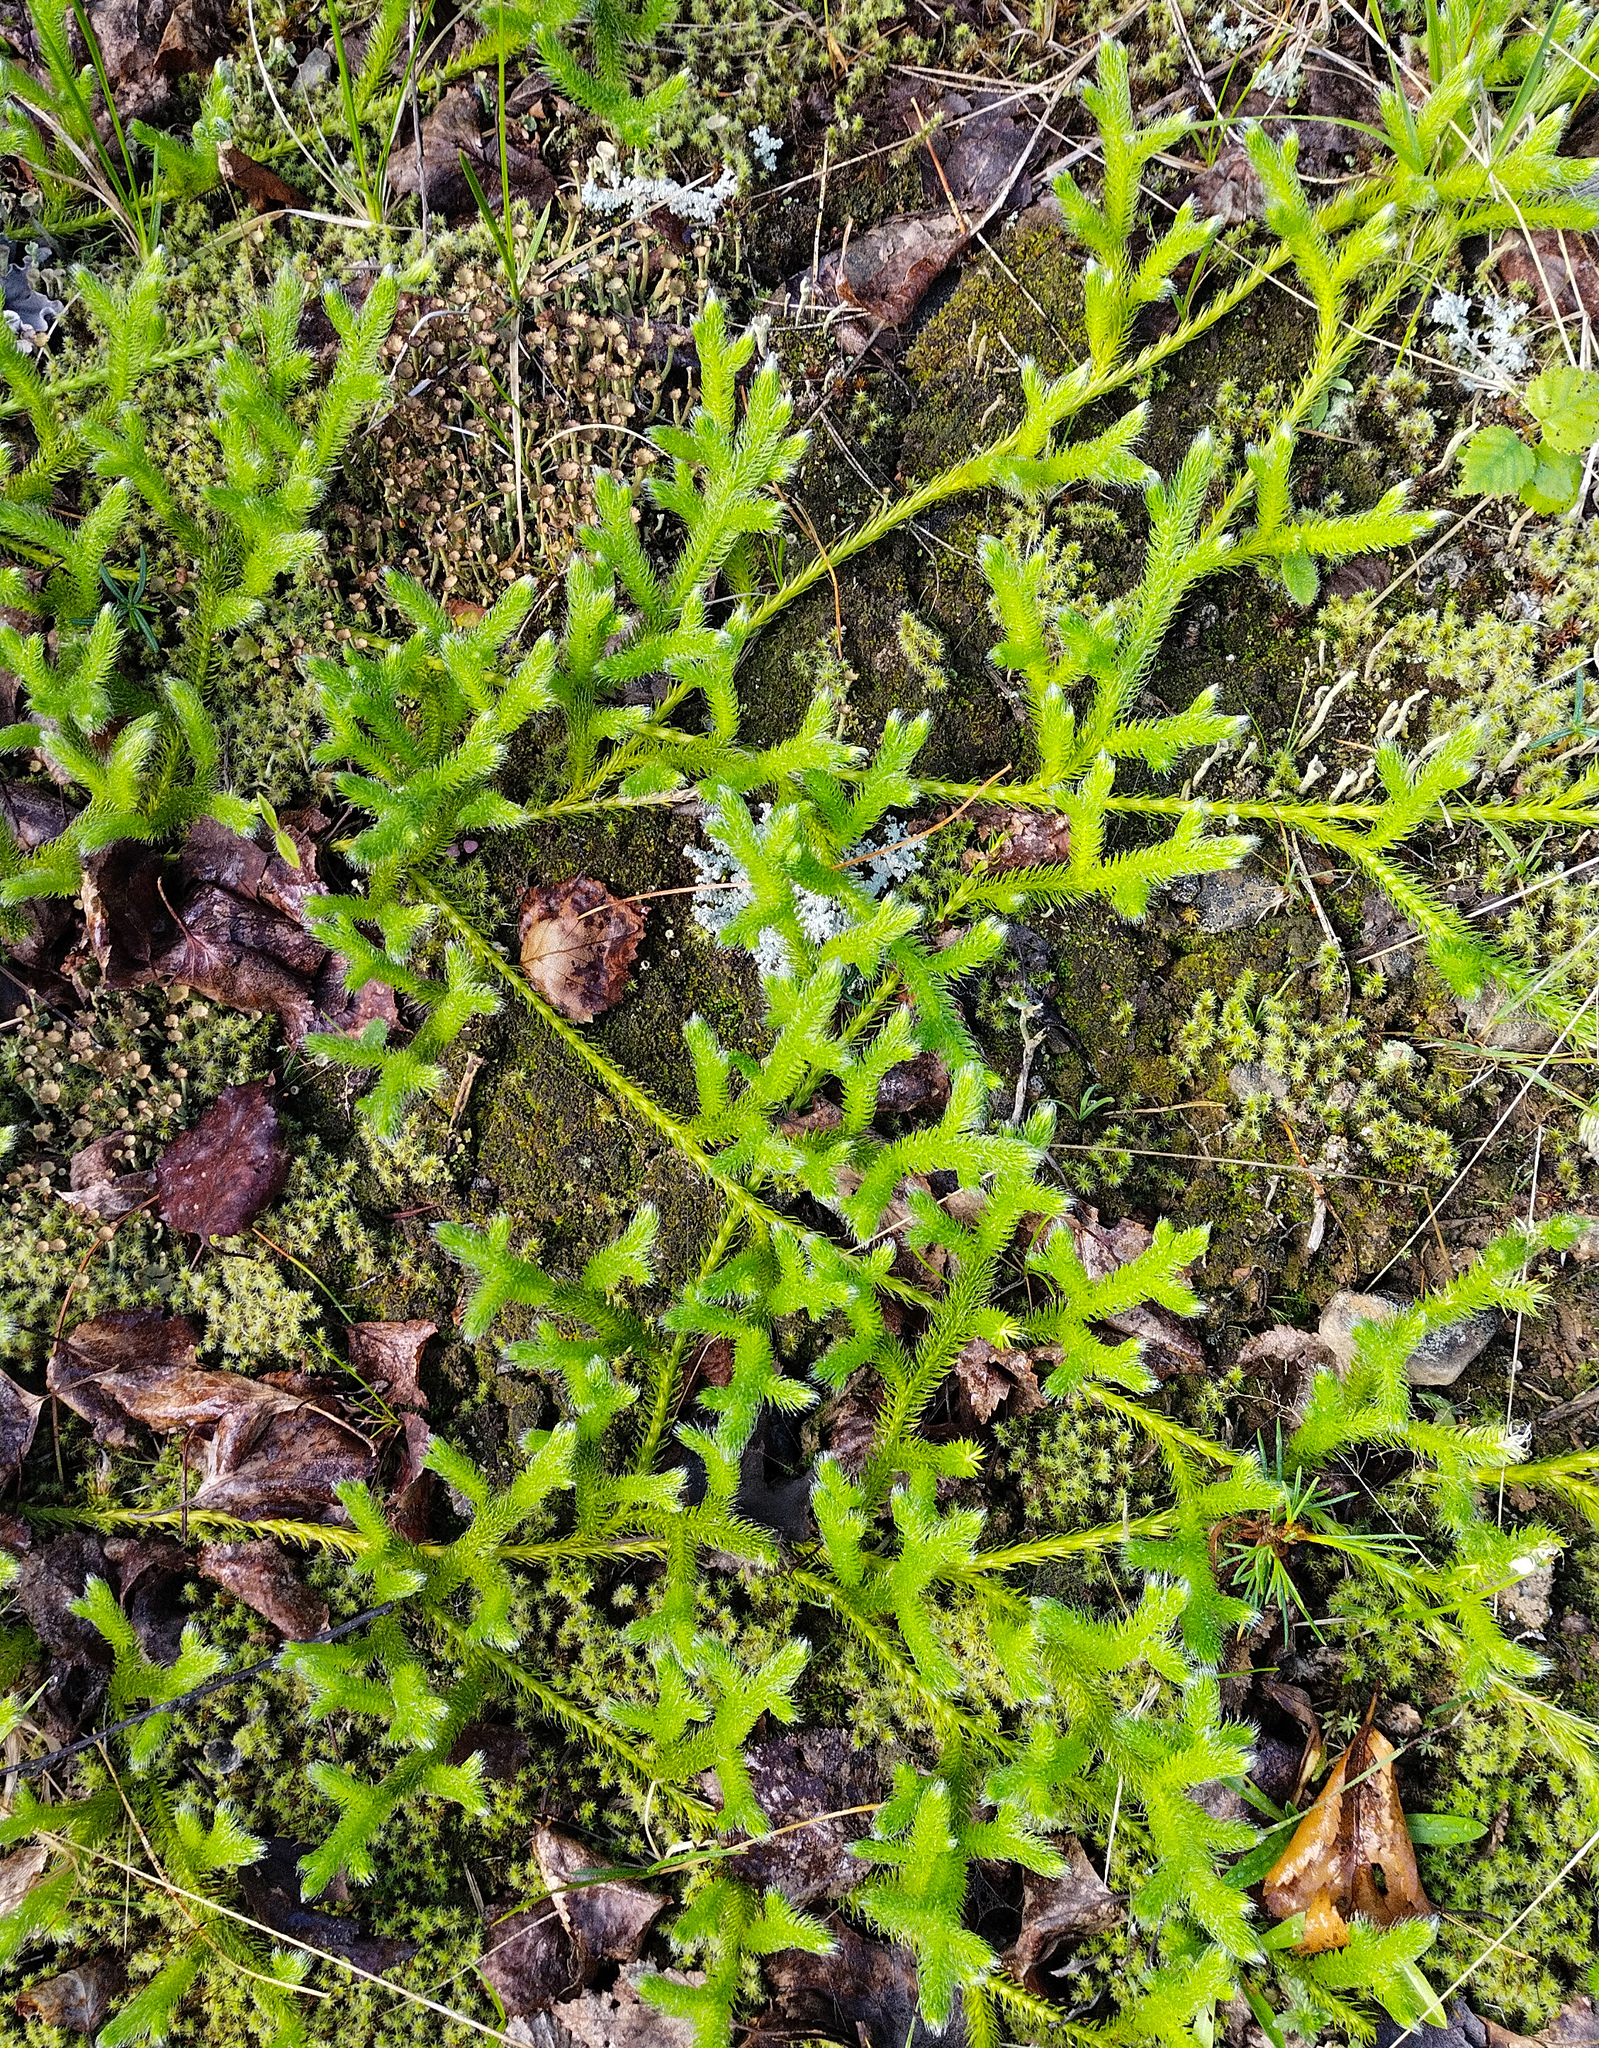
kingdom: Plantae
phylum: Tracheophyta
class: Lycopodiopsida
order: Lycopodiales
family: Lycopodiaceae
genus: Lycopodium
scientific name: Lycopodium clavatum
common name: Stag's-horn clubmoss
